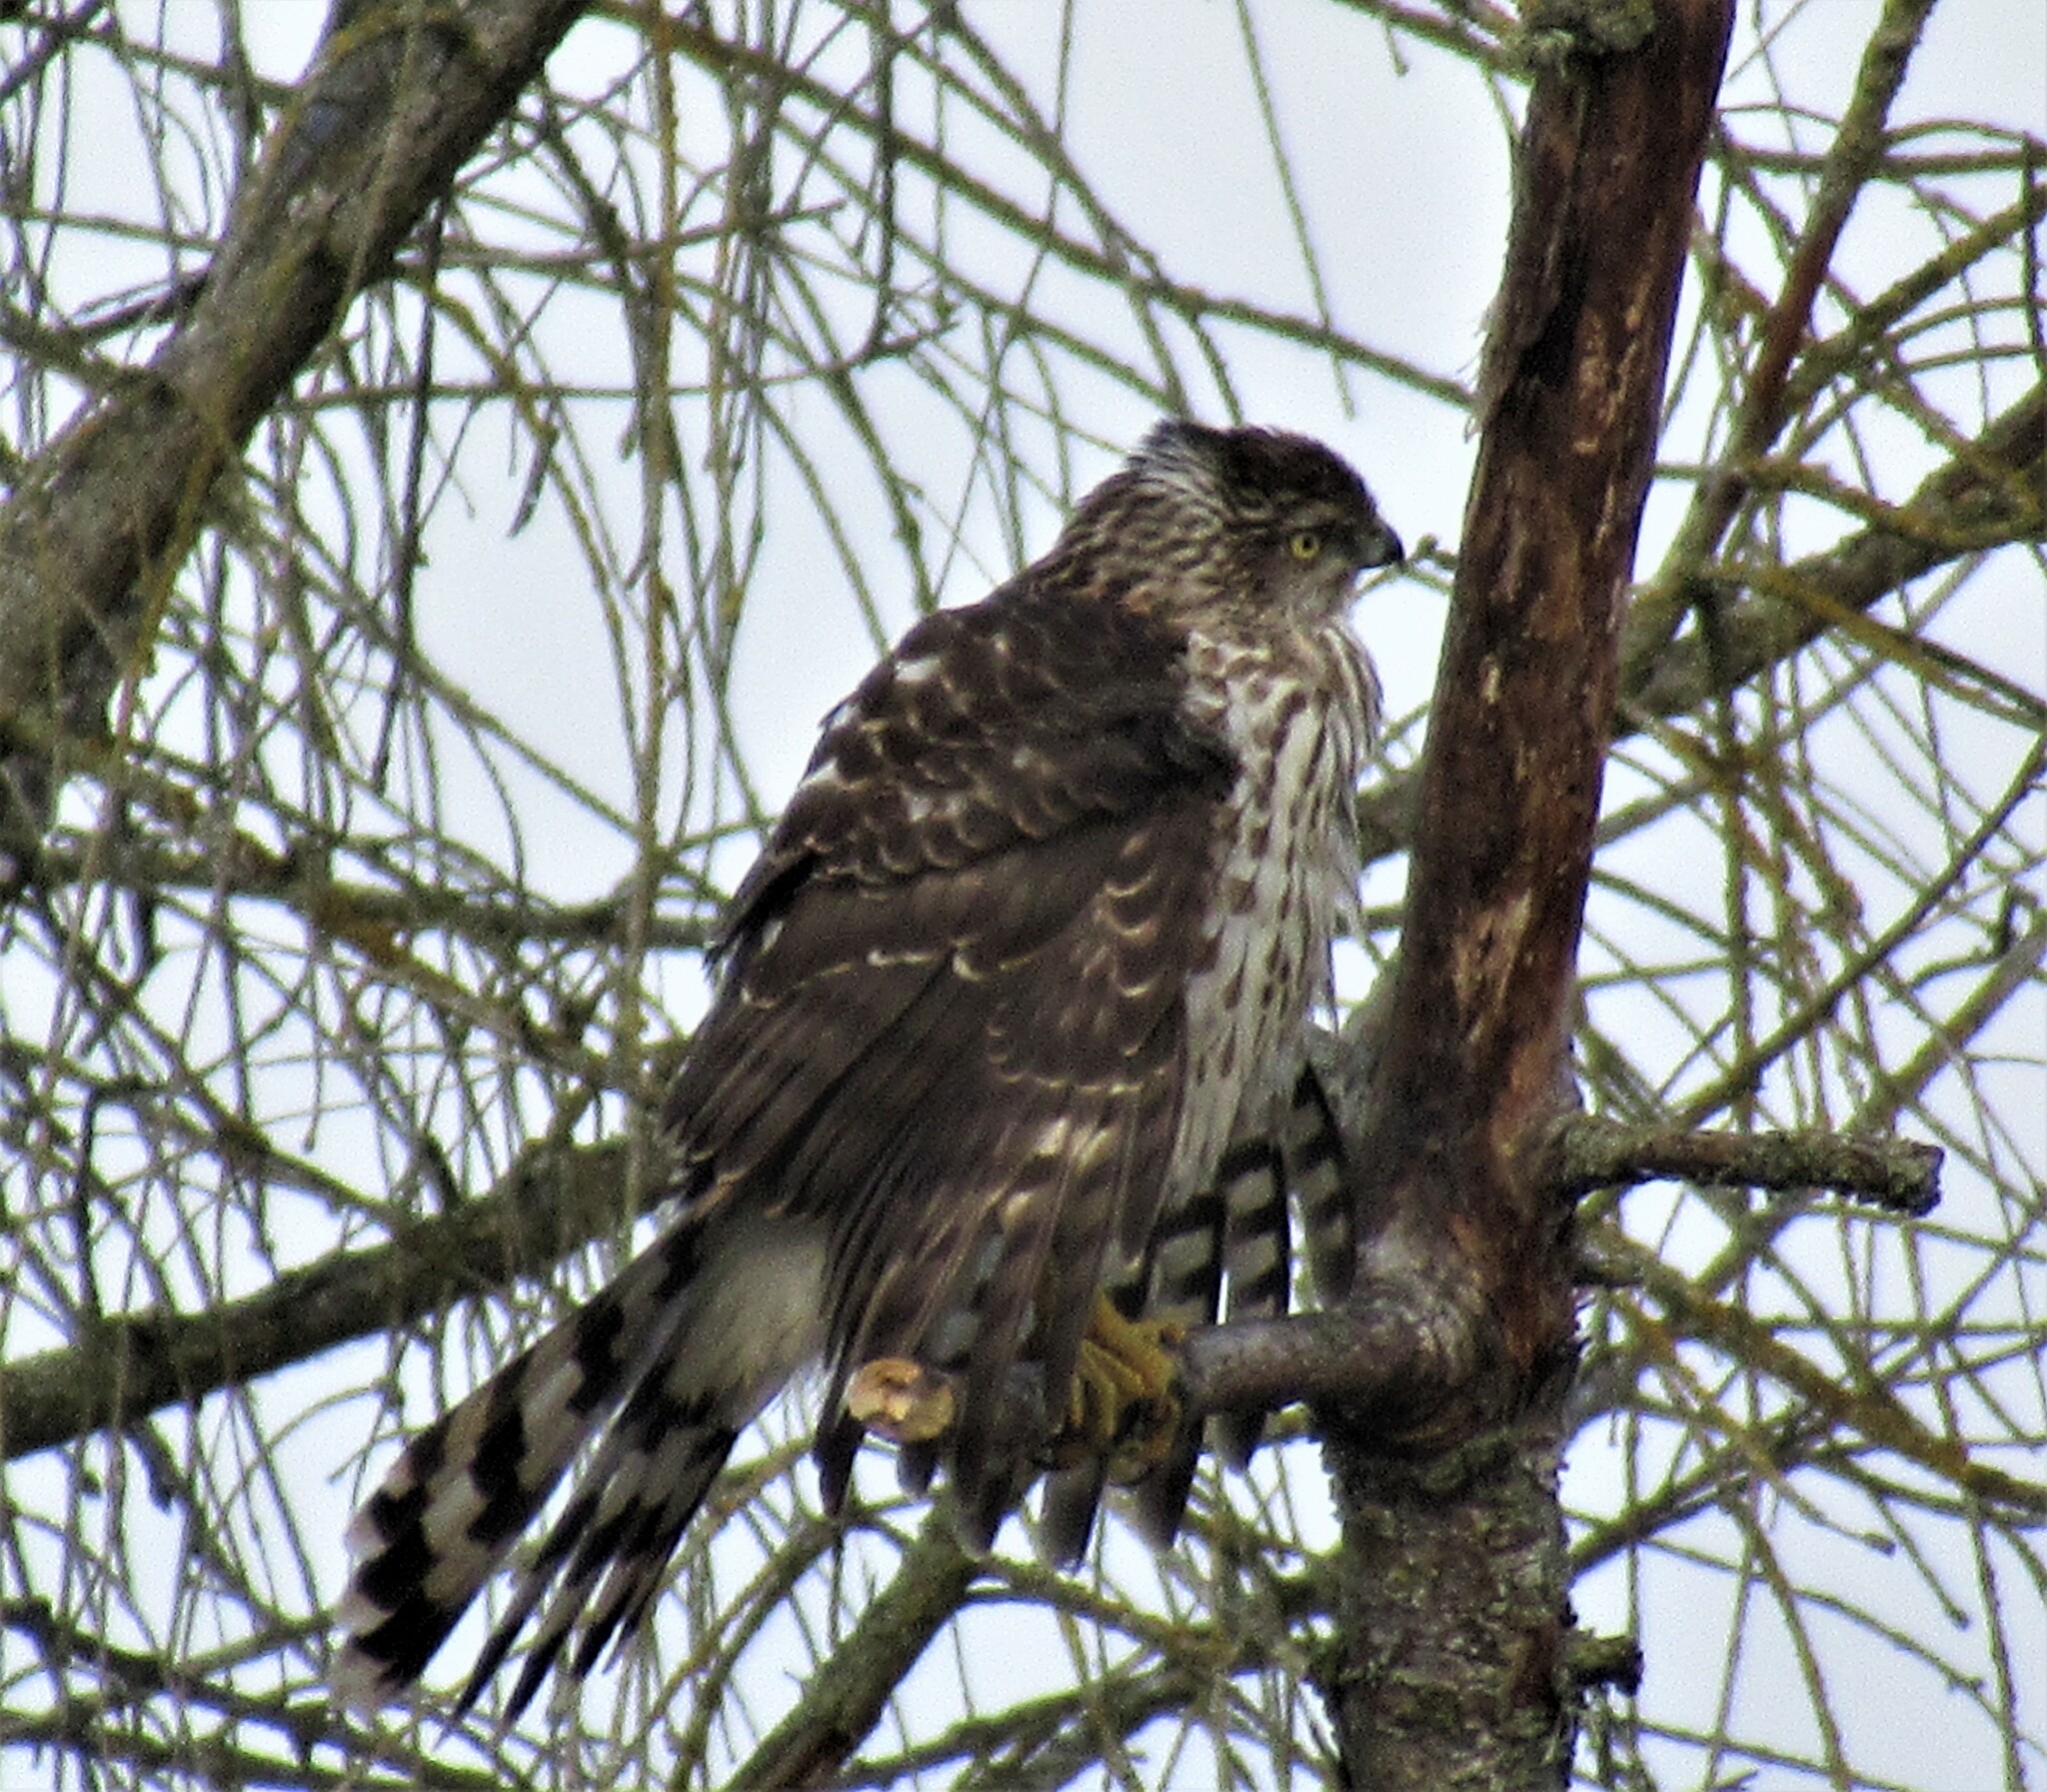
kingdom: Animalia
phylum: Chordata
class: Aves
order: Accipitriformes
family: Accipitridae
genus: Accipiter
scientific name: Accipiter cooperii
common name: Cooper's hawk
